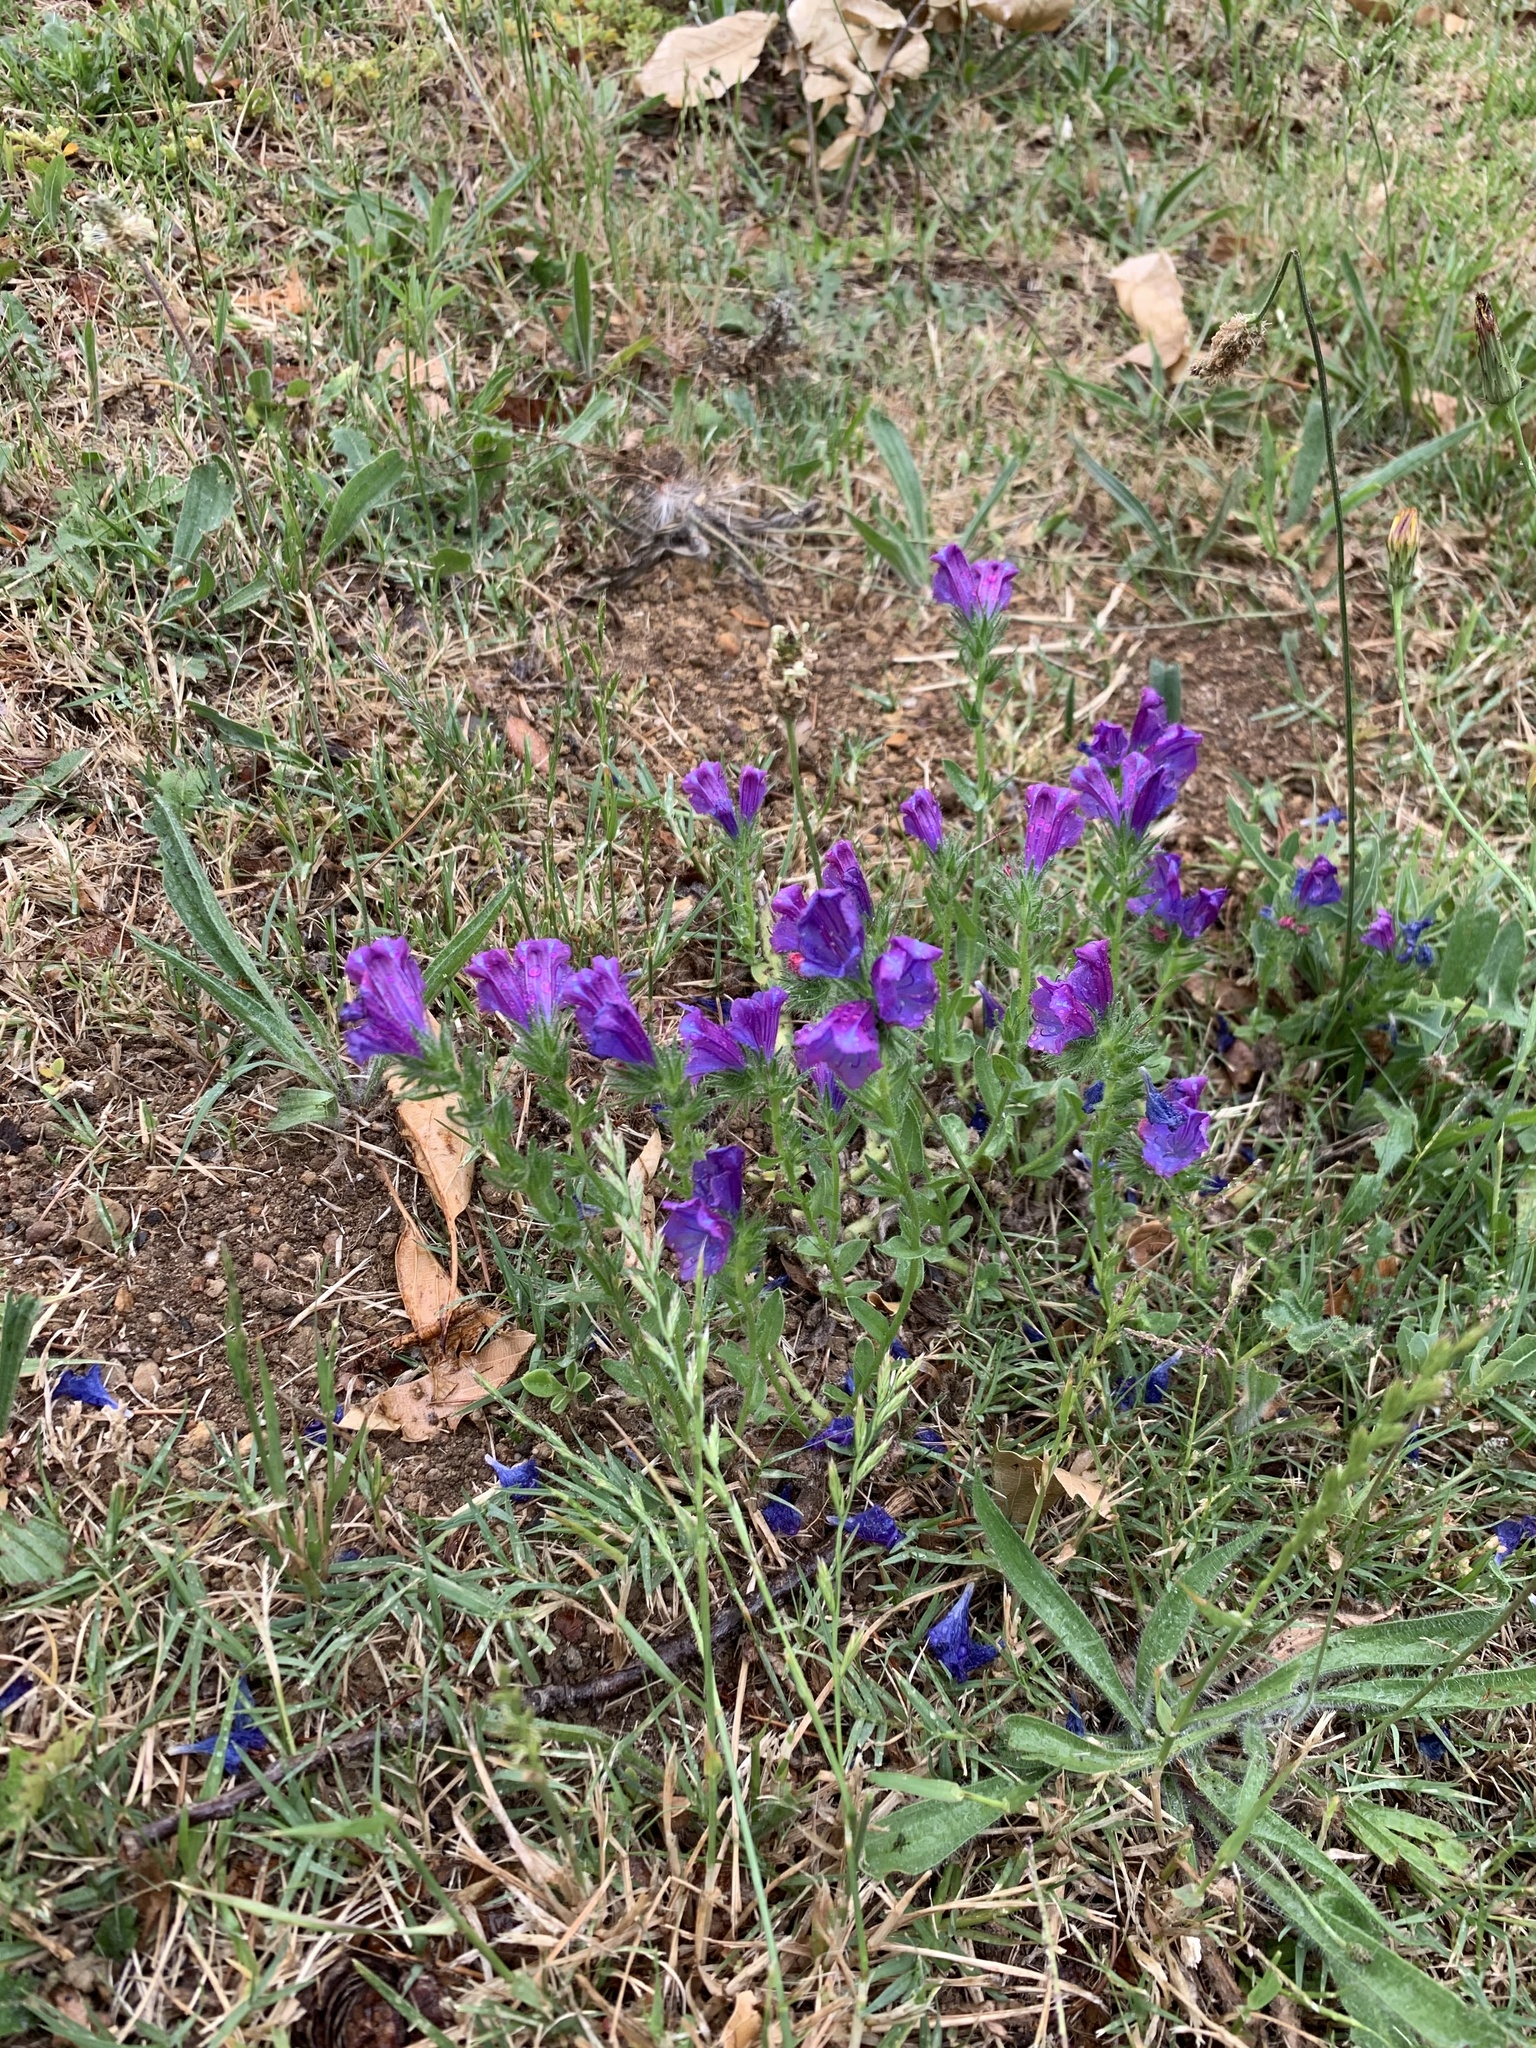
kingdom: Plantae
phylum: Tracheophyta
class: Magnoliopsida
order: Boraginales
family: Boraginaceae
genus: Echium
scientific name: Echium plantagineum
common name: Purple viper's-bugloss
